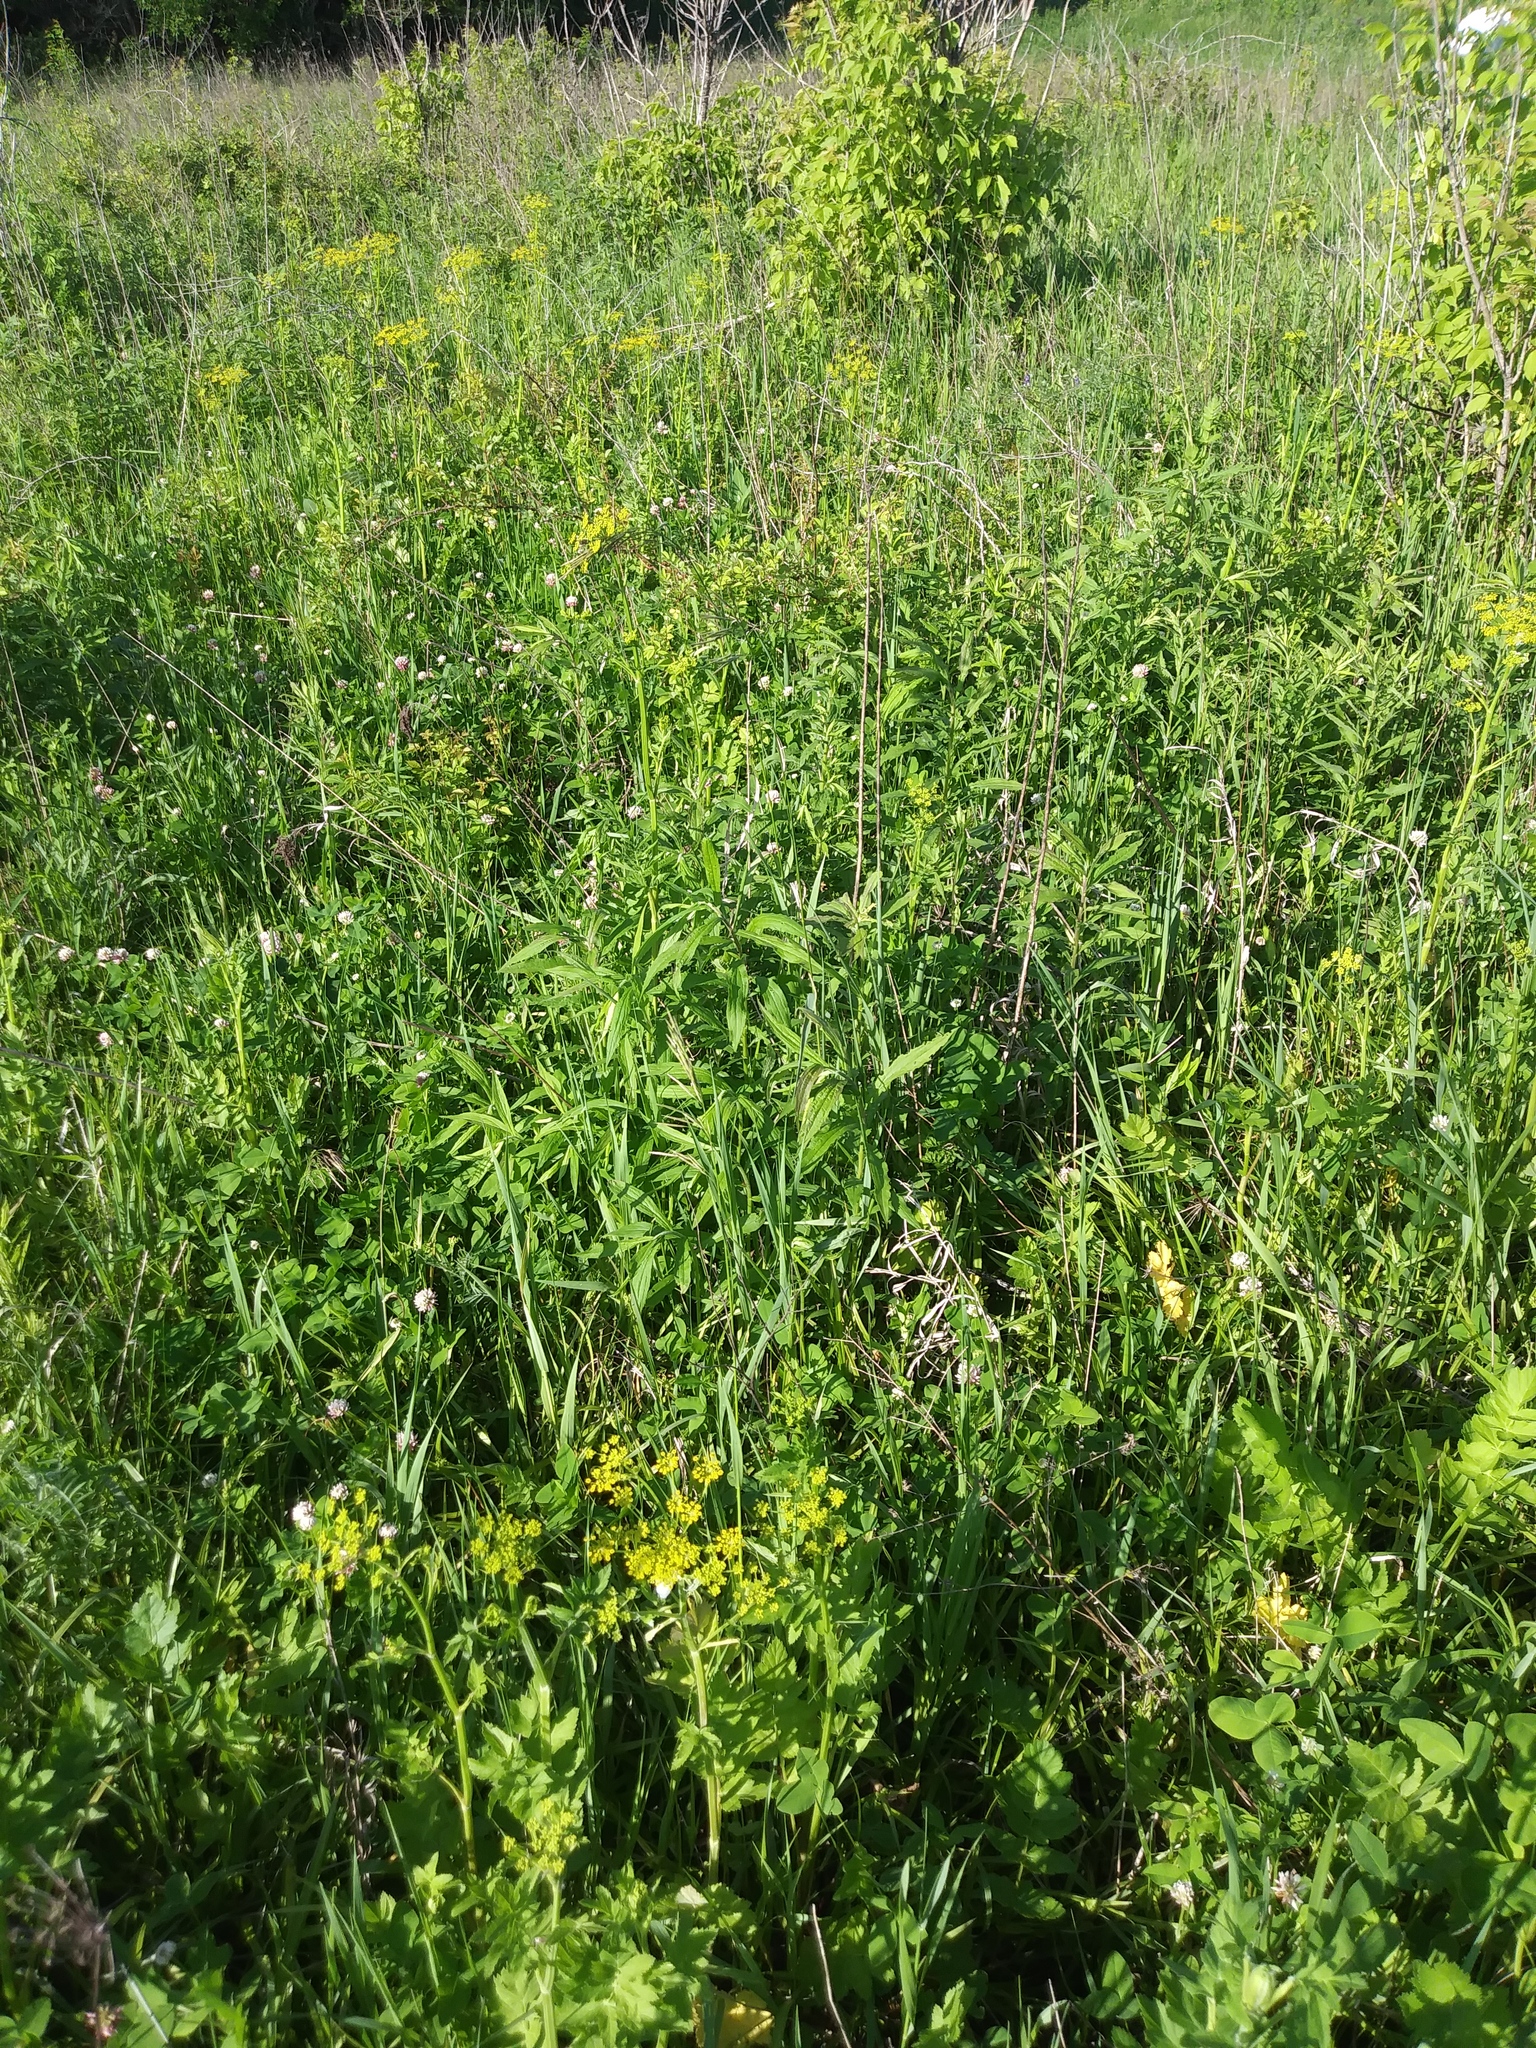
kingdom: Plantae
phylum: Tracheophyta
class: Magnoliopsida
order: Apiales
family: Apiaceae
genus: Pastinaca
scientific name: Pastinaca sativa
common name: Wild parsnip
